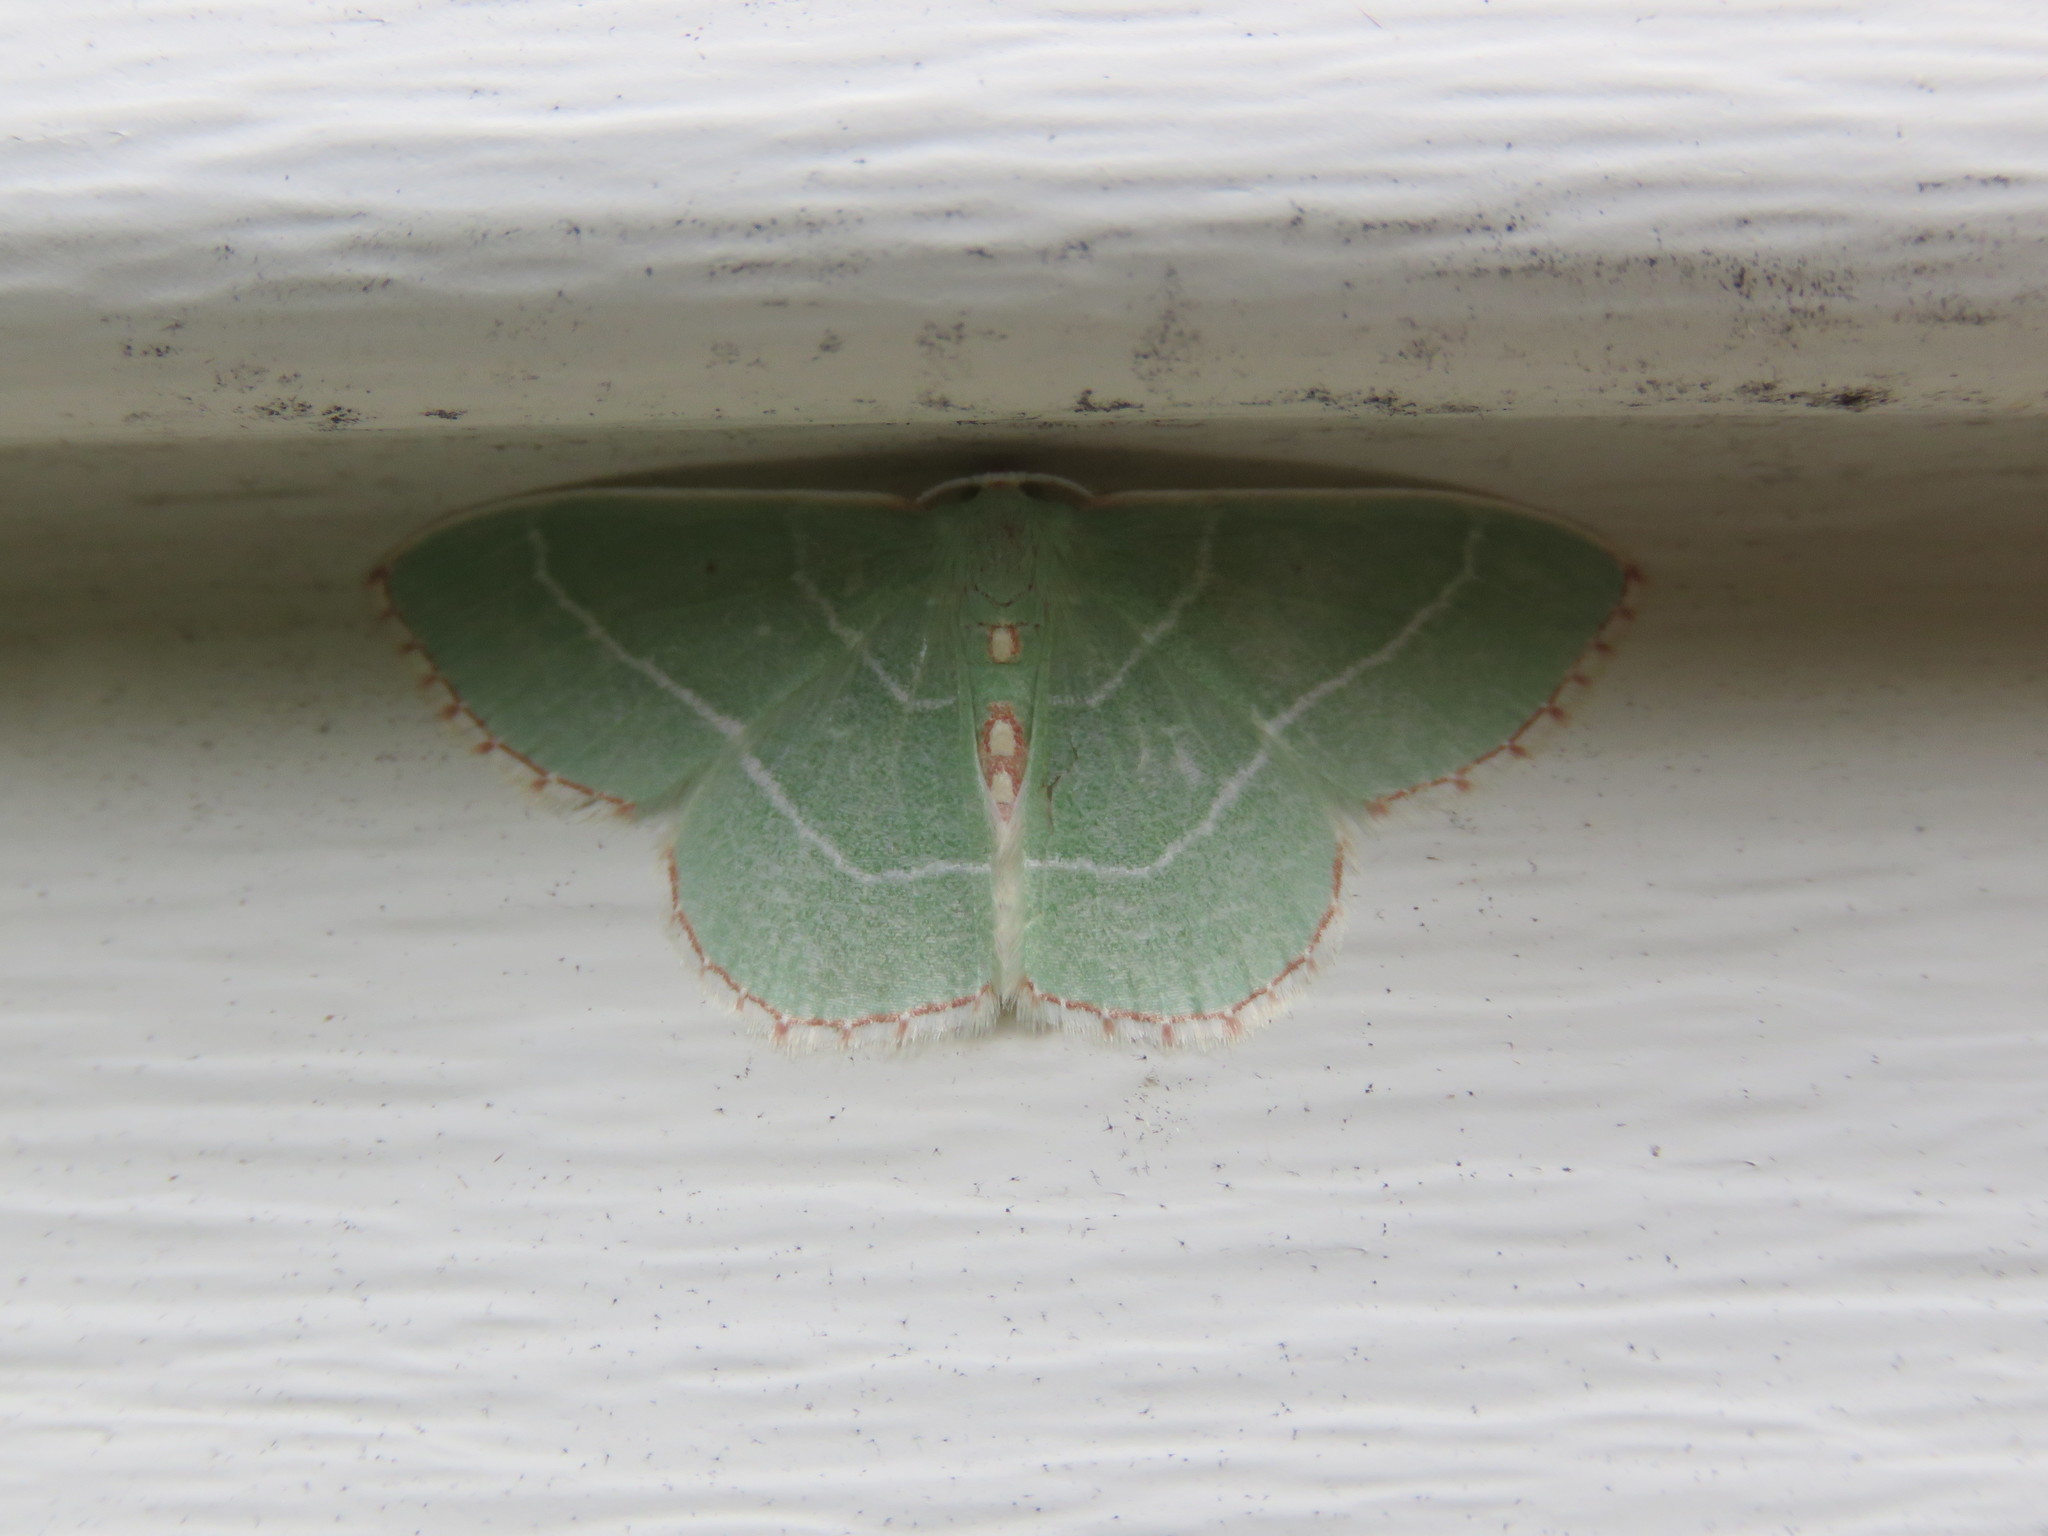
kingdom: Animalia
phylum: Arthropoda
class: Insecta
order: Lepidoptera
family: Geometridae
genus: Nemoria
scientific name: Nemoria bistriaria
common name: Red-fringed emerald
